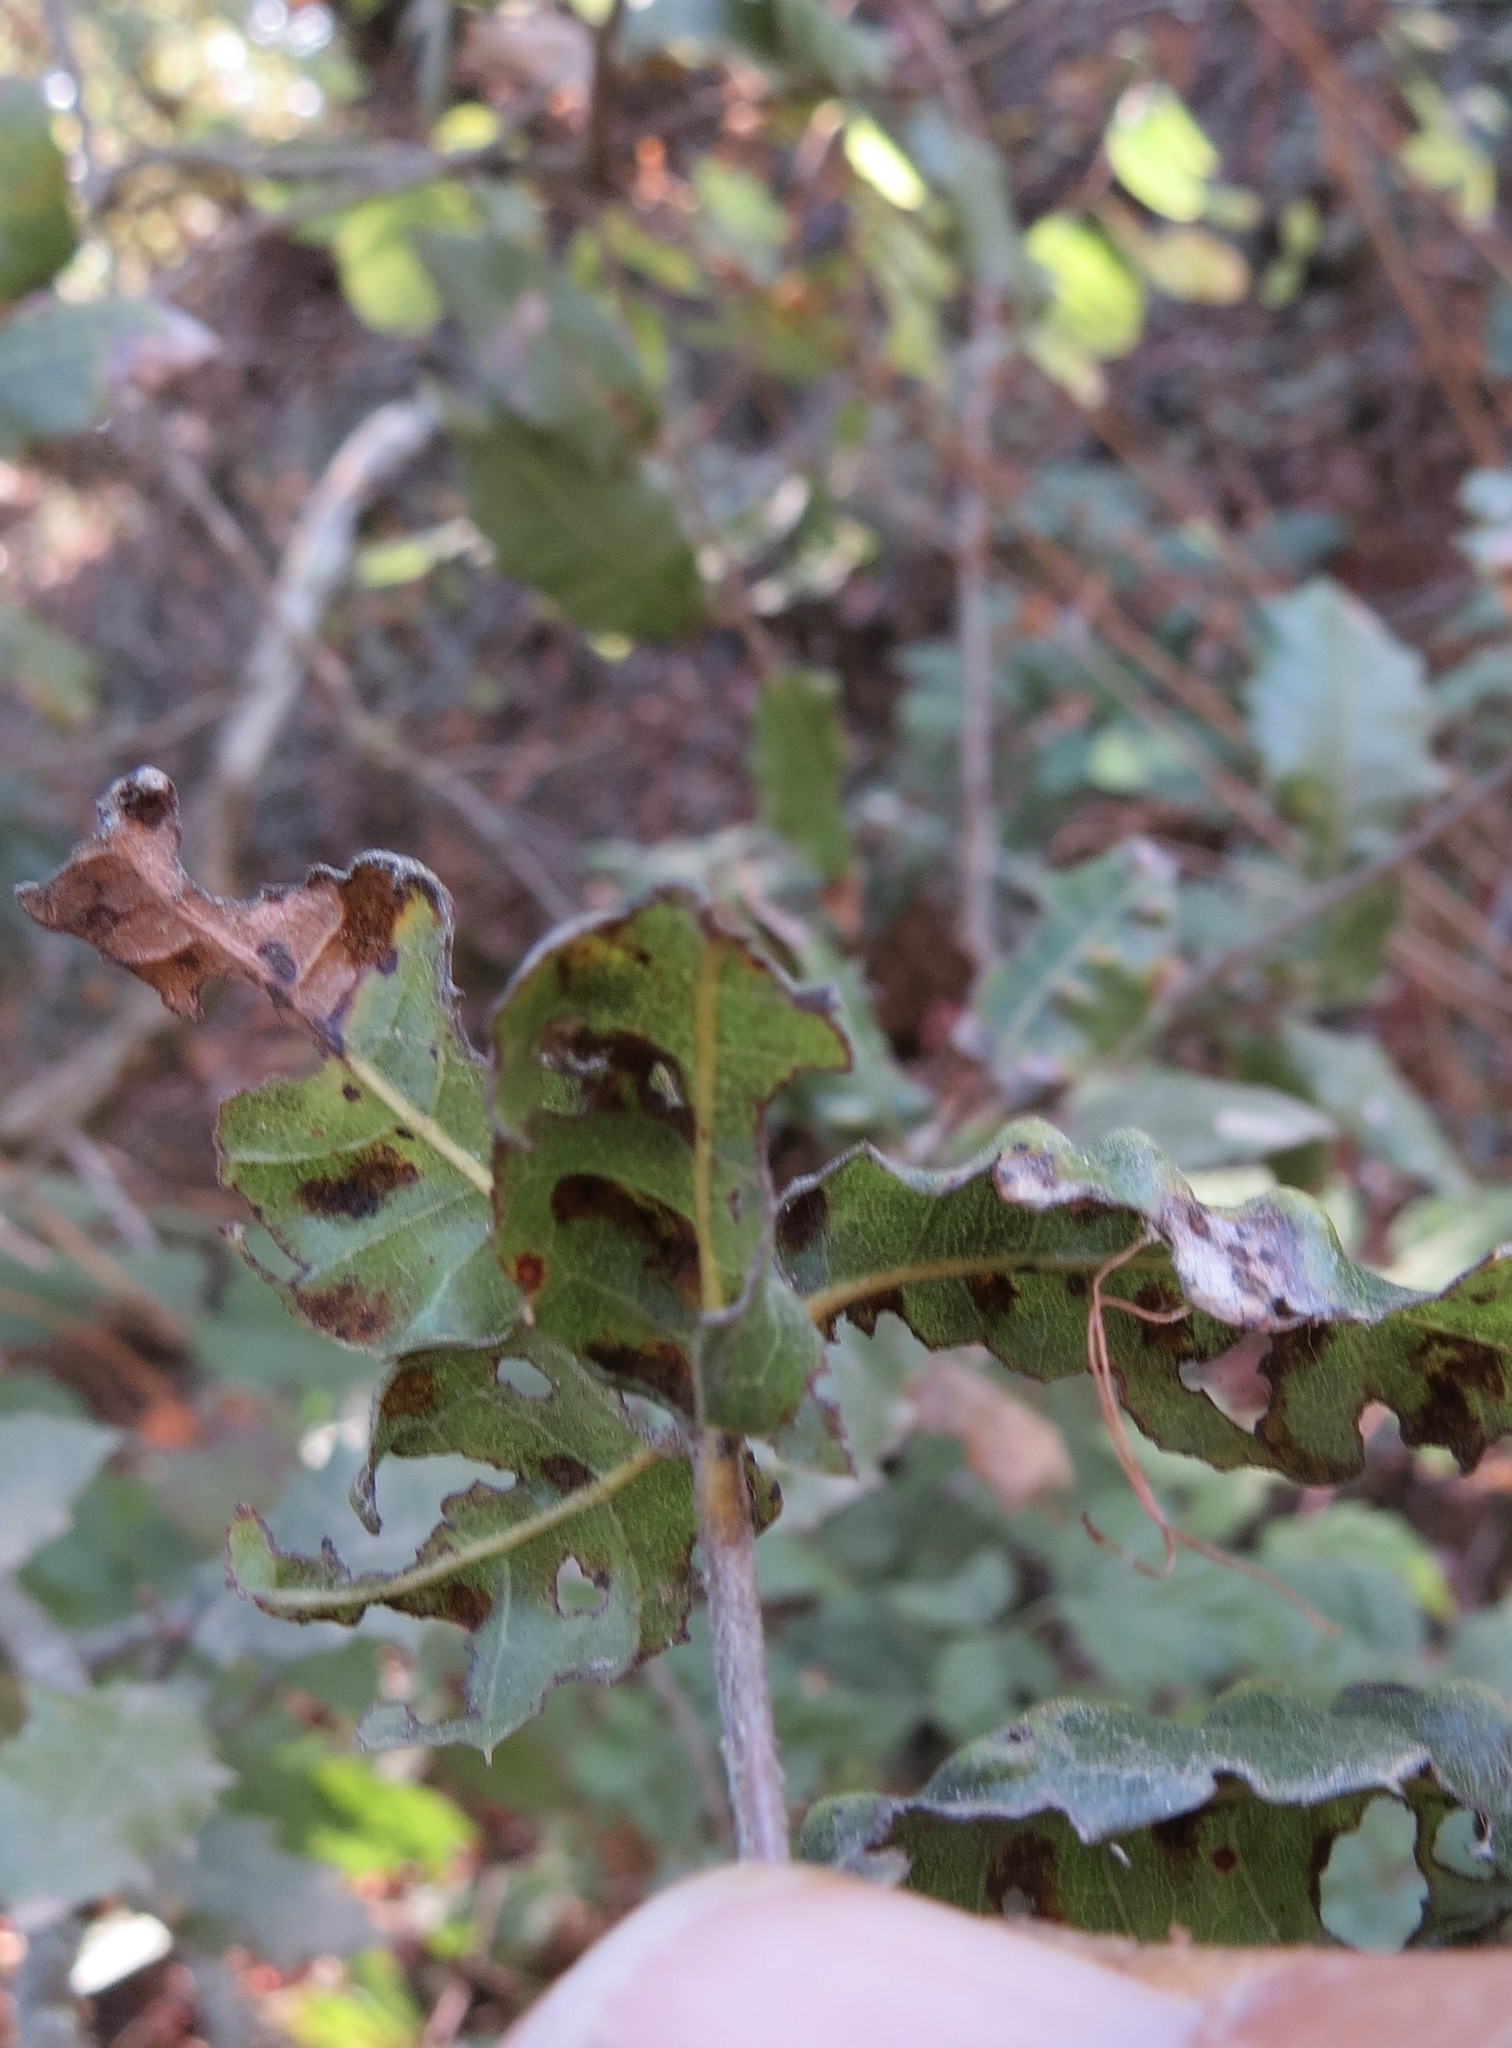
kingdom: Animalia
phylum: Arthropoda
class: Arachnida
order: Trombidiformes
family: Eriophyidae
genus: Aceria
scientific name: Aceria
